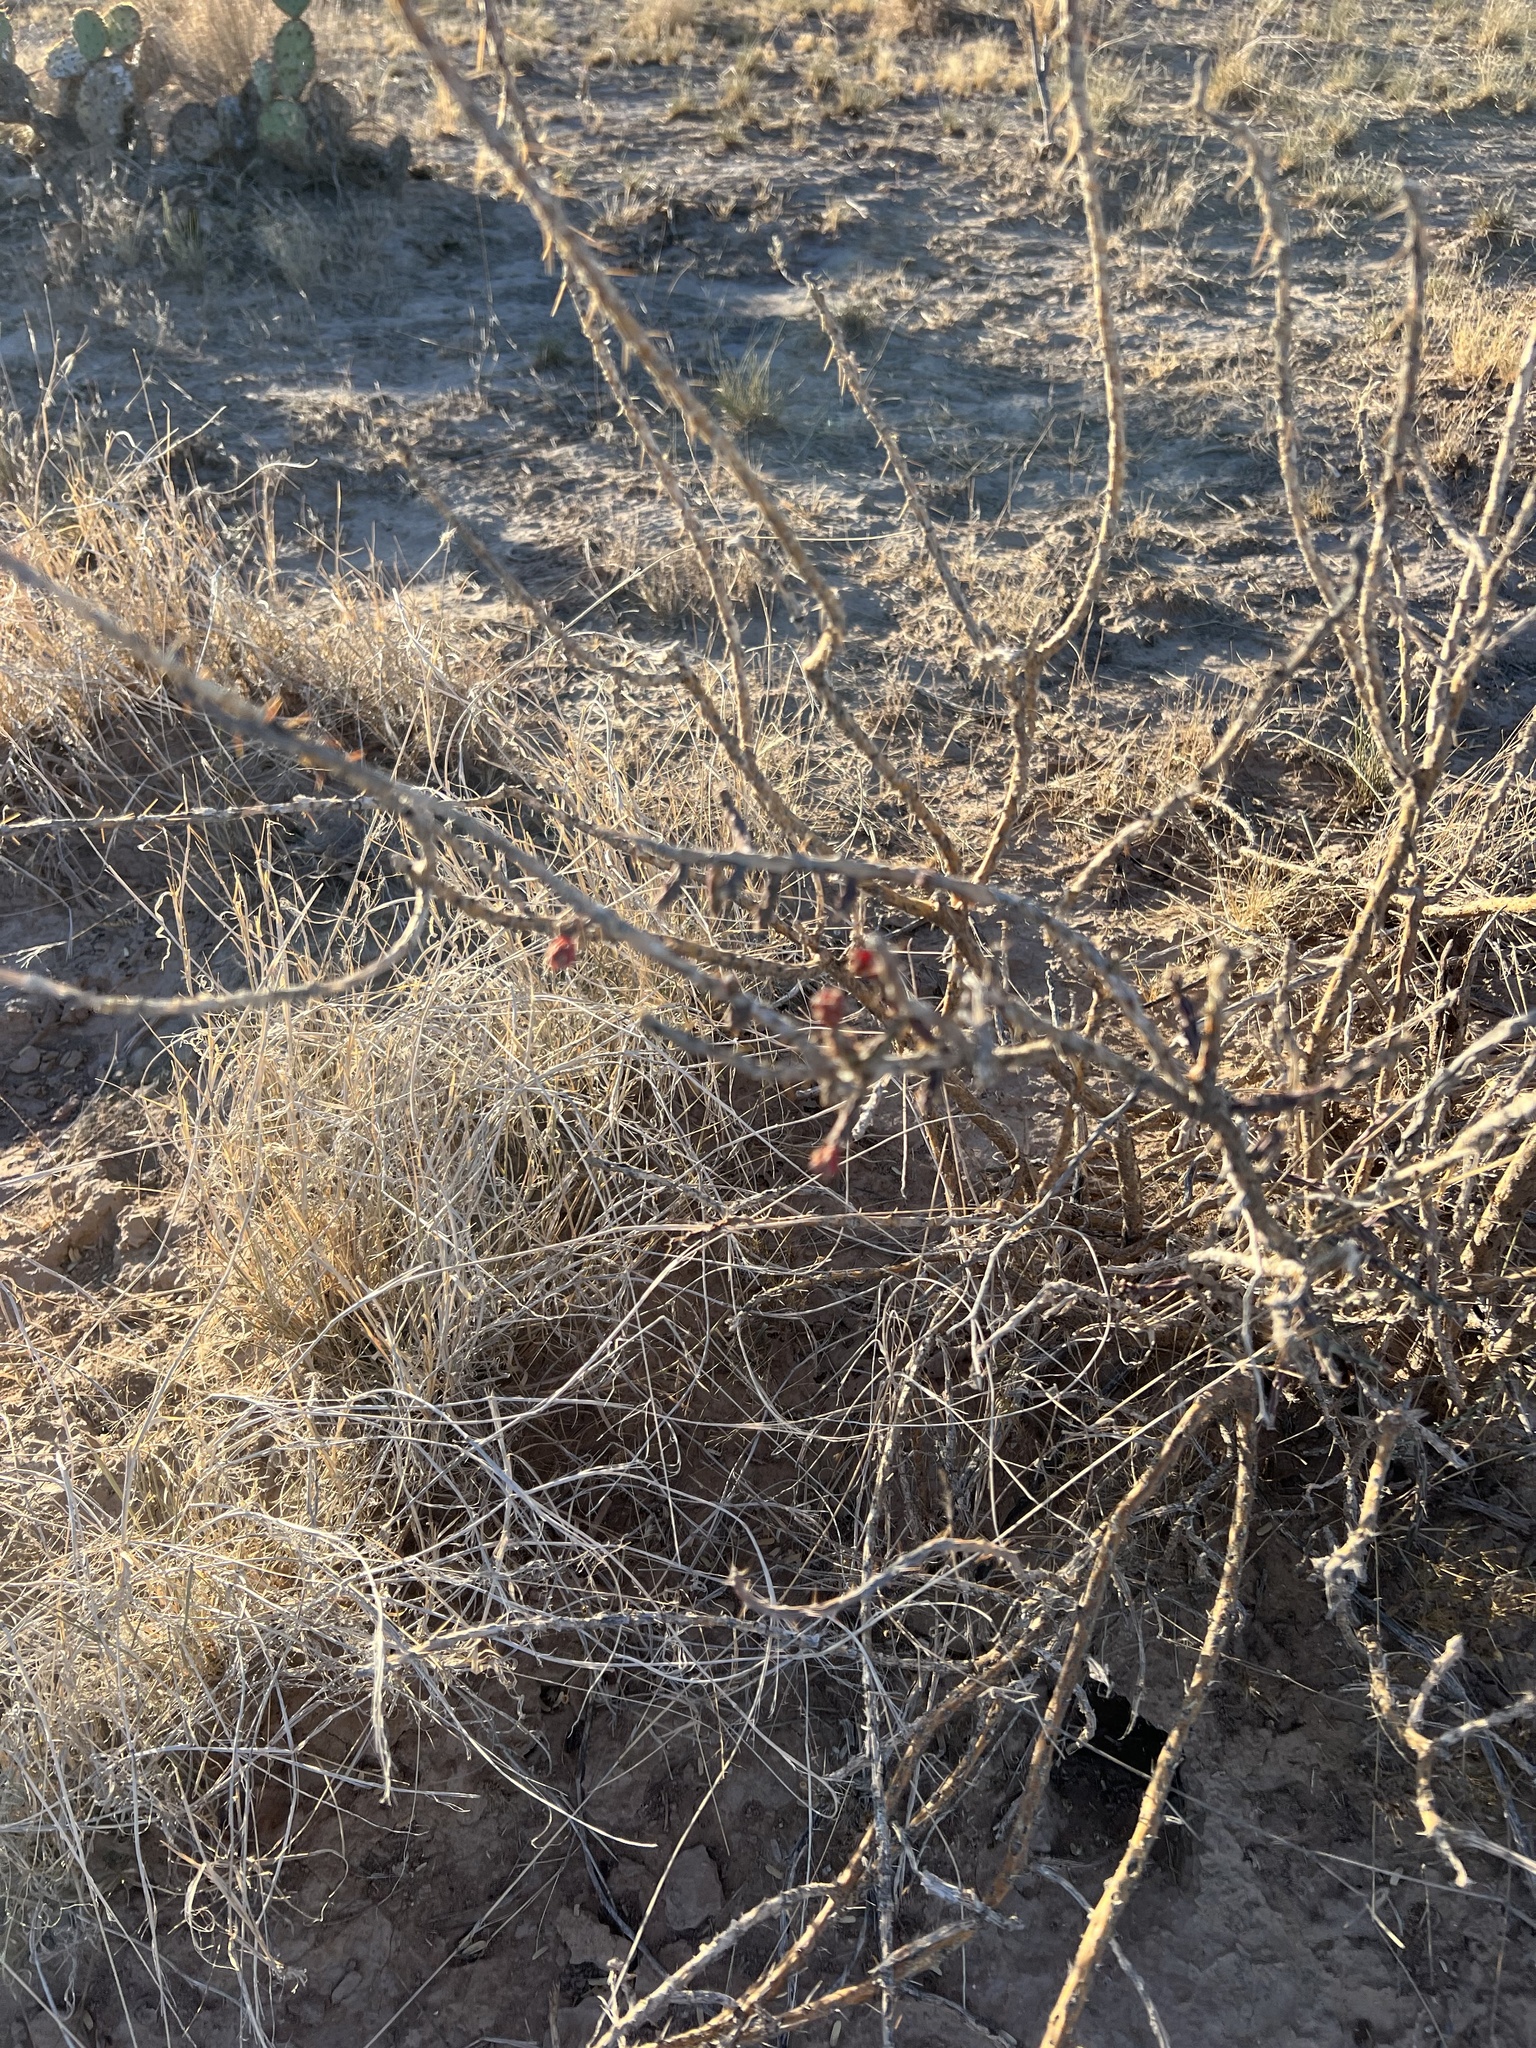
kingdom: Plantae
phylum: Tracheophyta
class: Magnoliopsida
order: Caryophyllales
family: Cactaceae
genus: Cylindropuntia
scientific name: Cylindropuntia leptocaulis
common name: Christmas cactus
